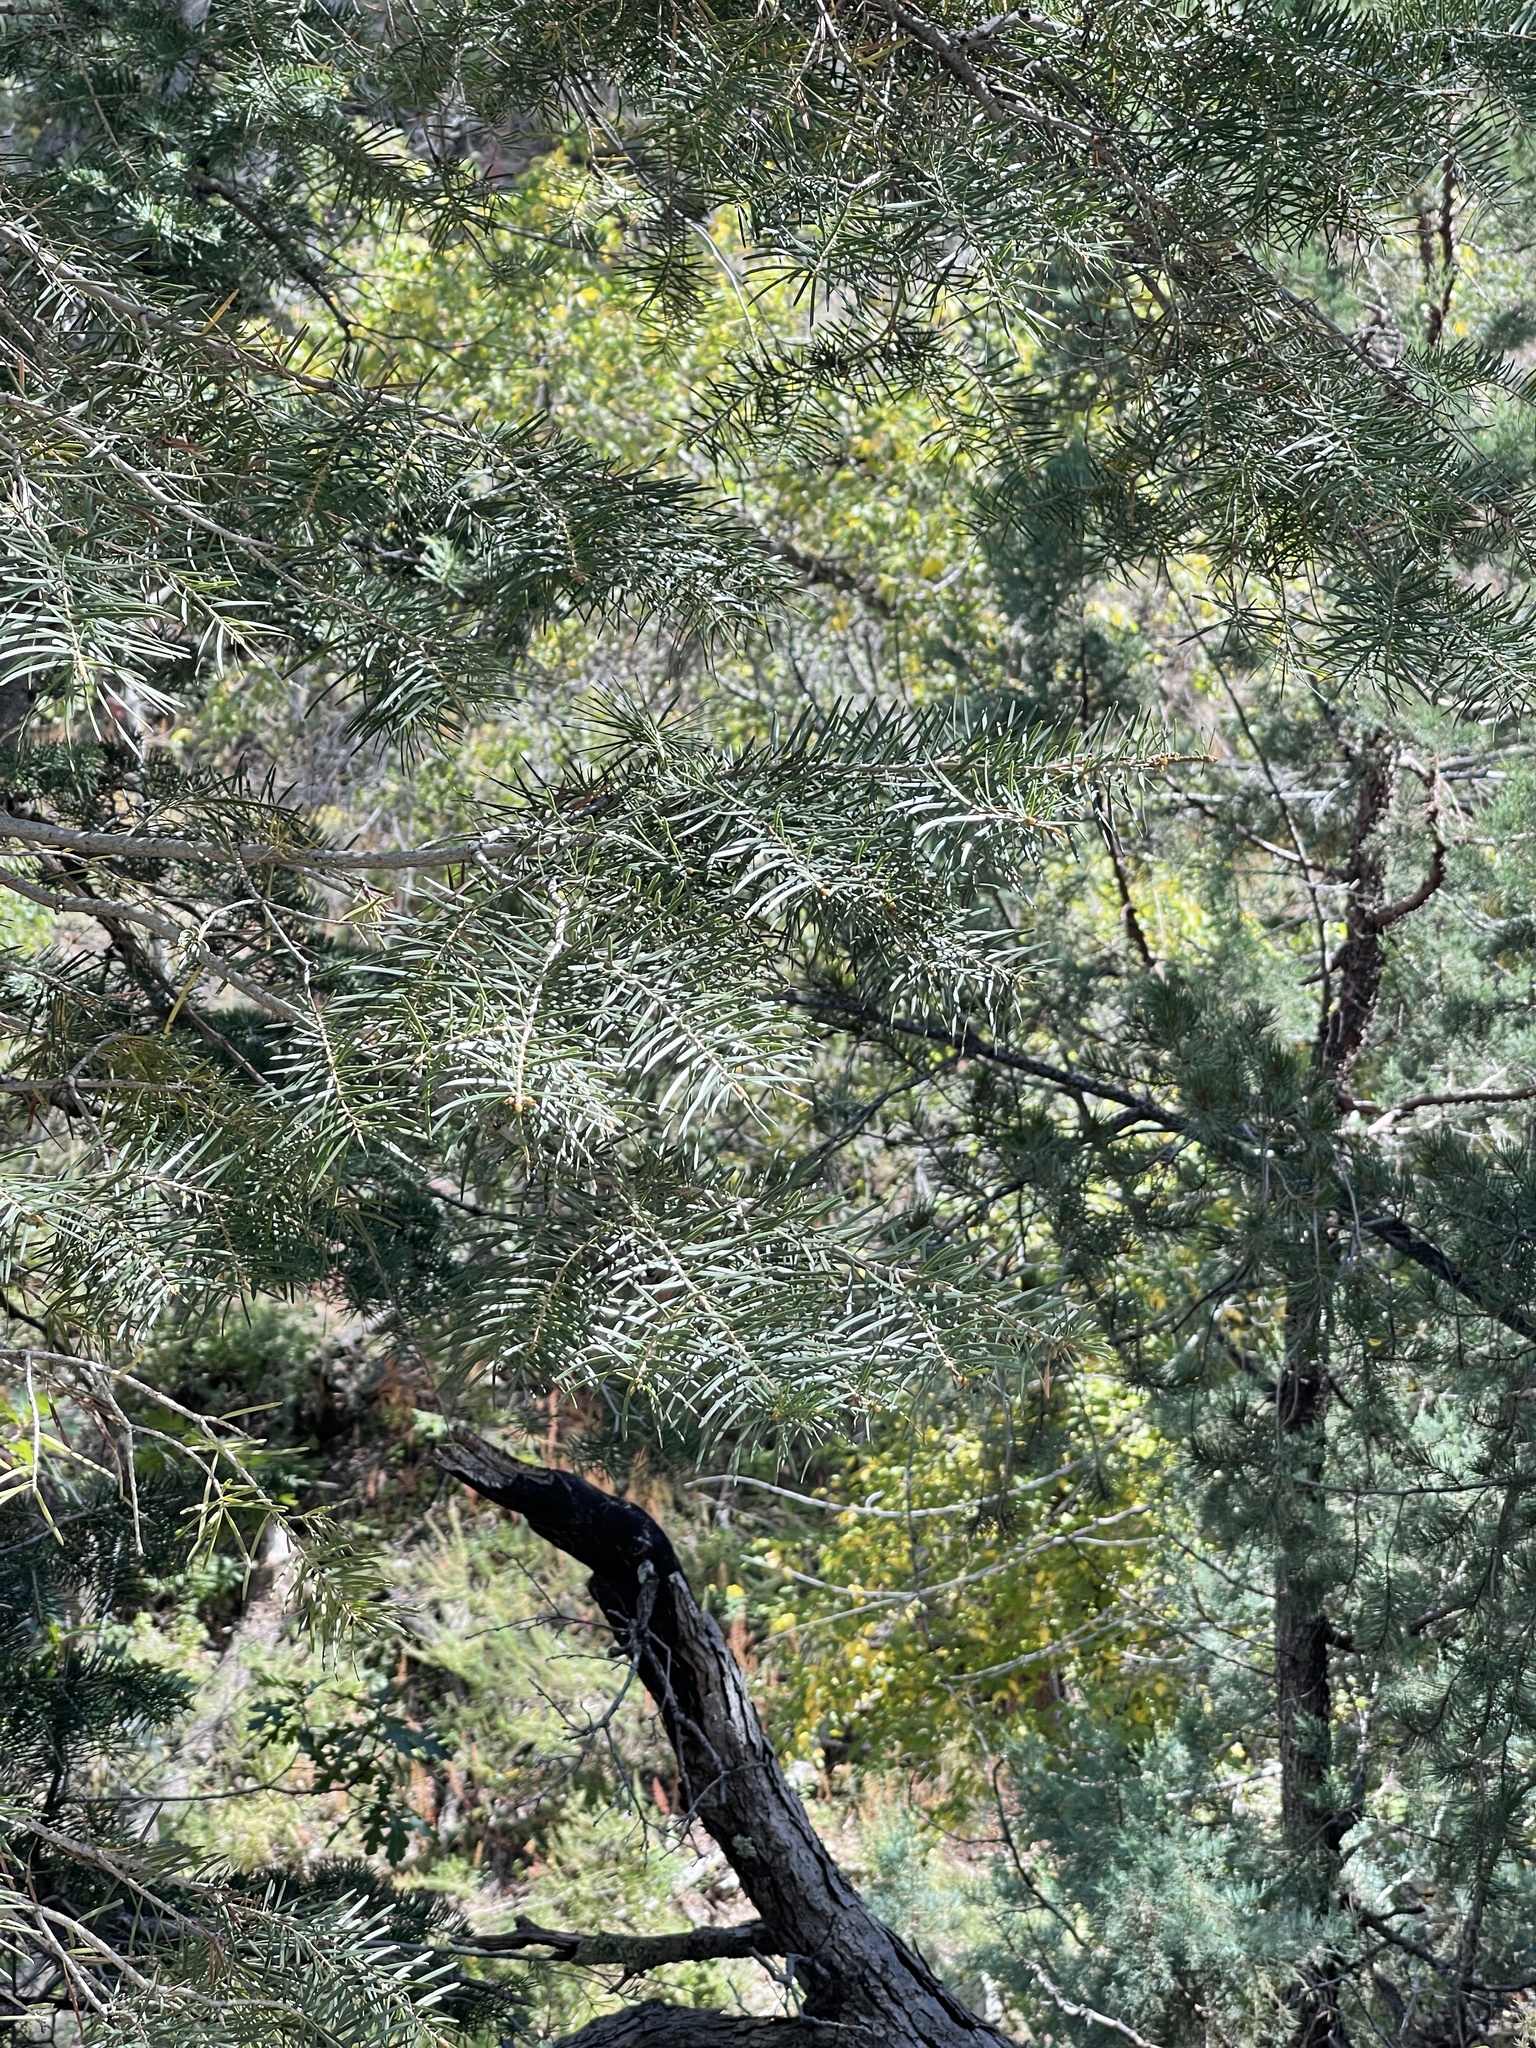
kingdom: Plantae
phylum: Tracheophyta
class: Pinopsida
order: Pinales
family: Pinaceae
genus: Abies
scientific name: Abies concolor
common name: Colorado fir
